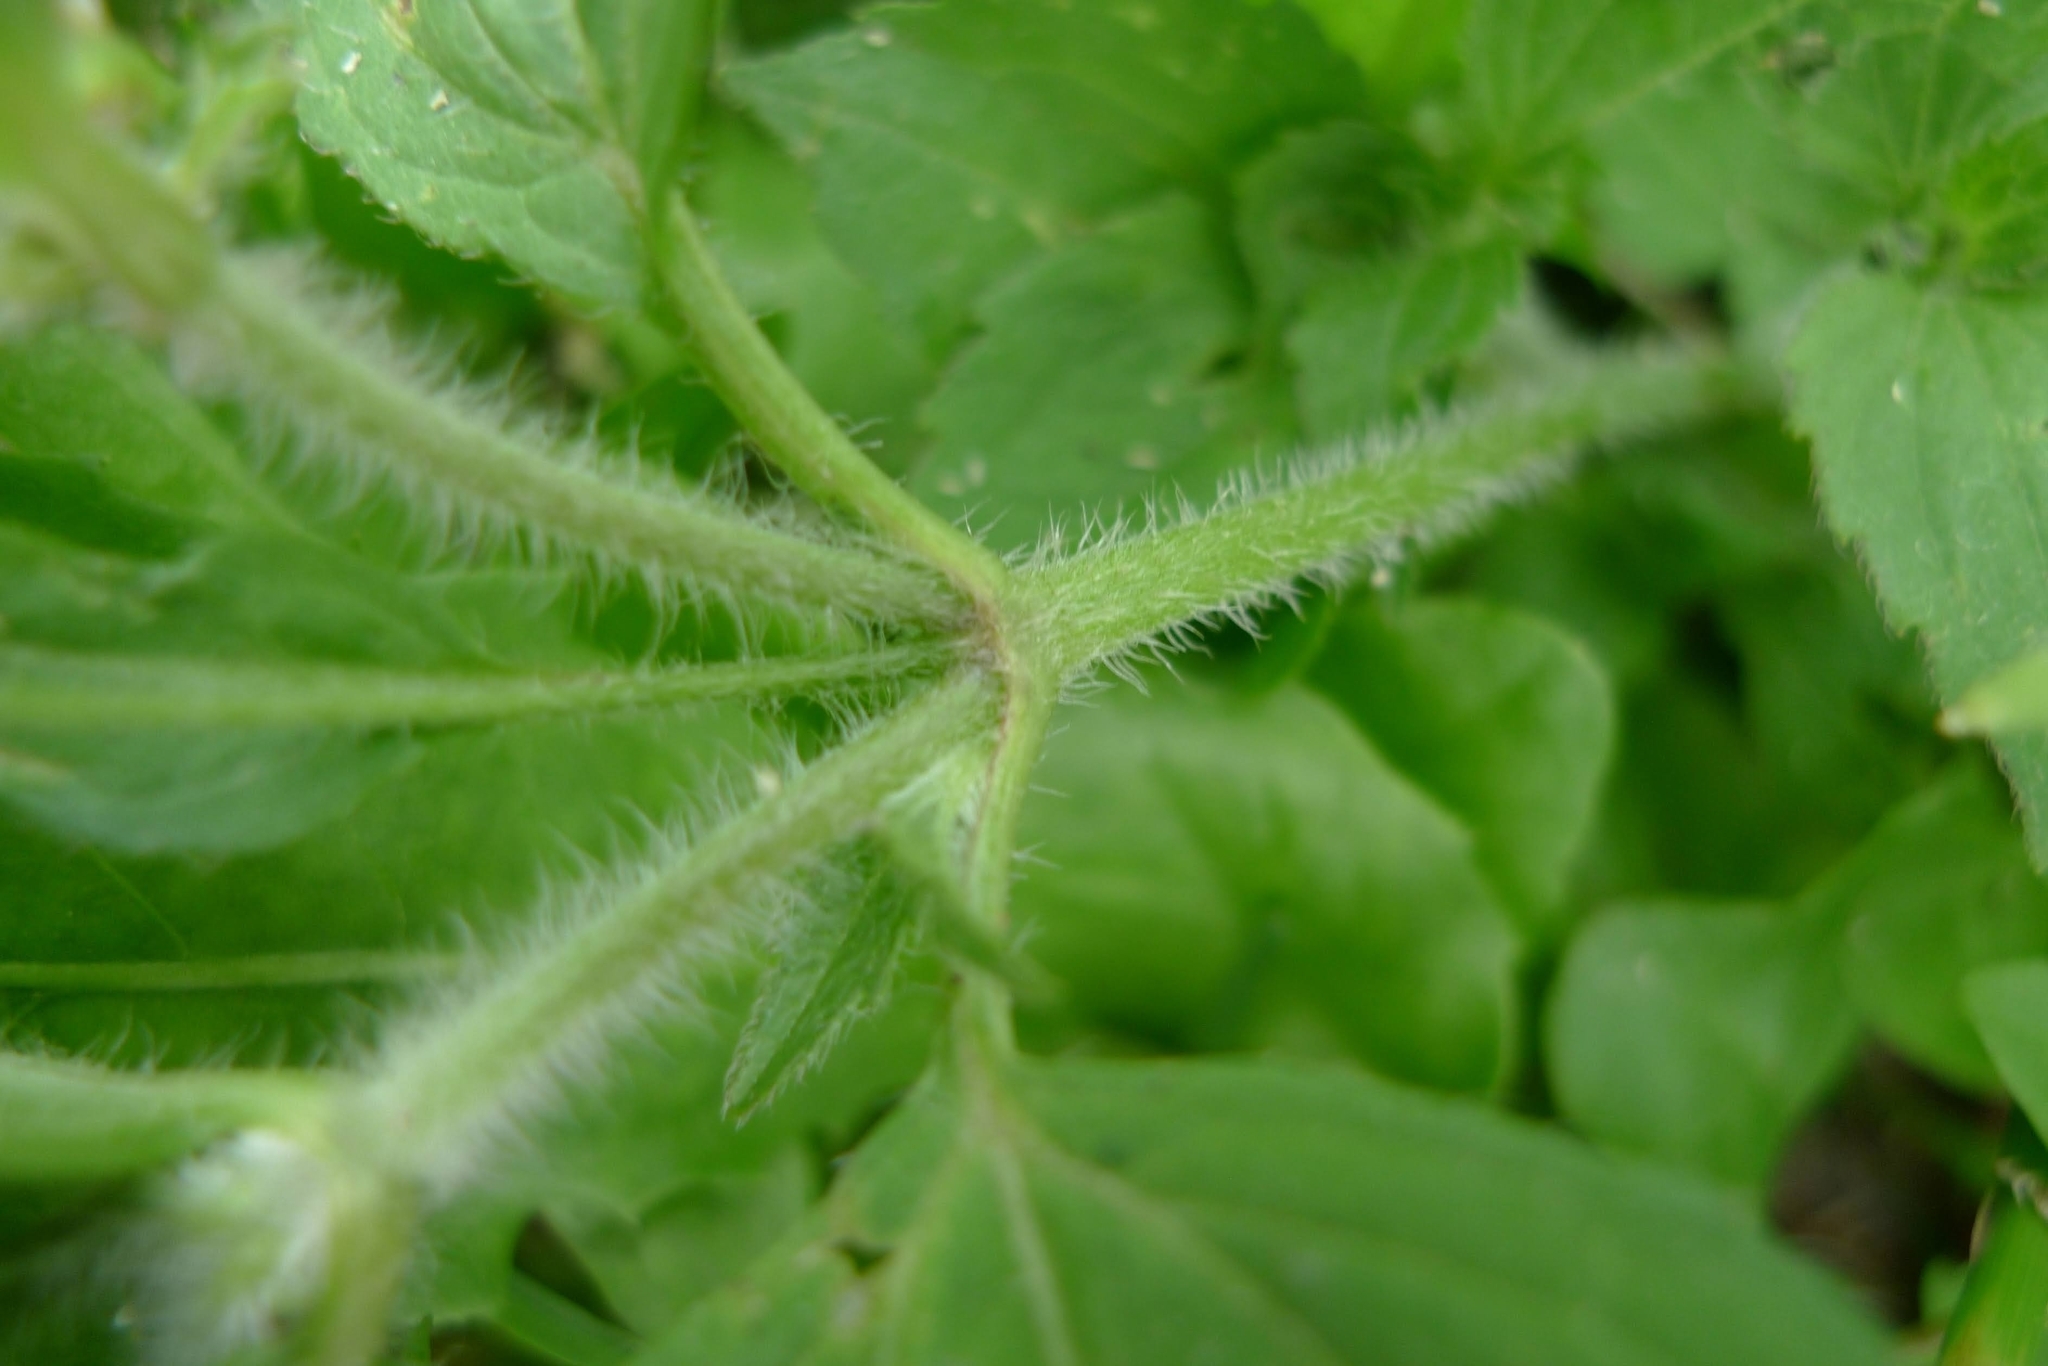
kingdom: Plantae
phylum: Tracheophyta
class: Magnoliopsida
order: Asterales
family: Asteraceae
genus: Galinsoga
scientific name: Galinsoga quadriradiata
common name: Shaggy soldier
